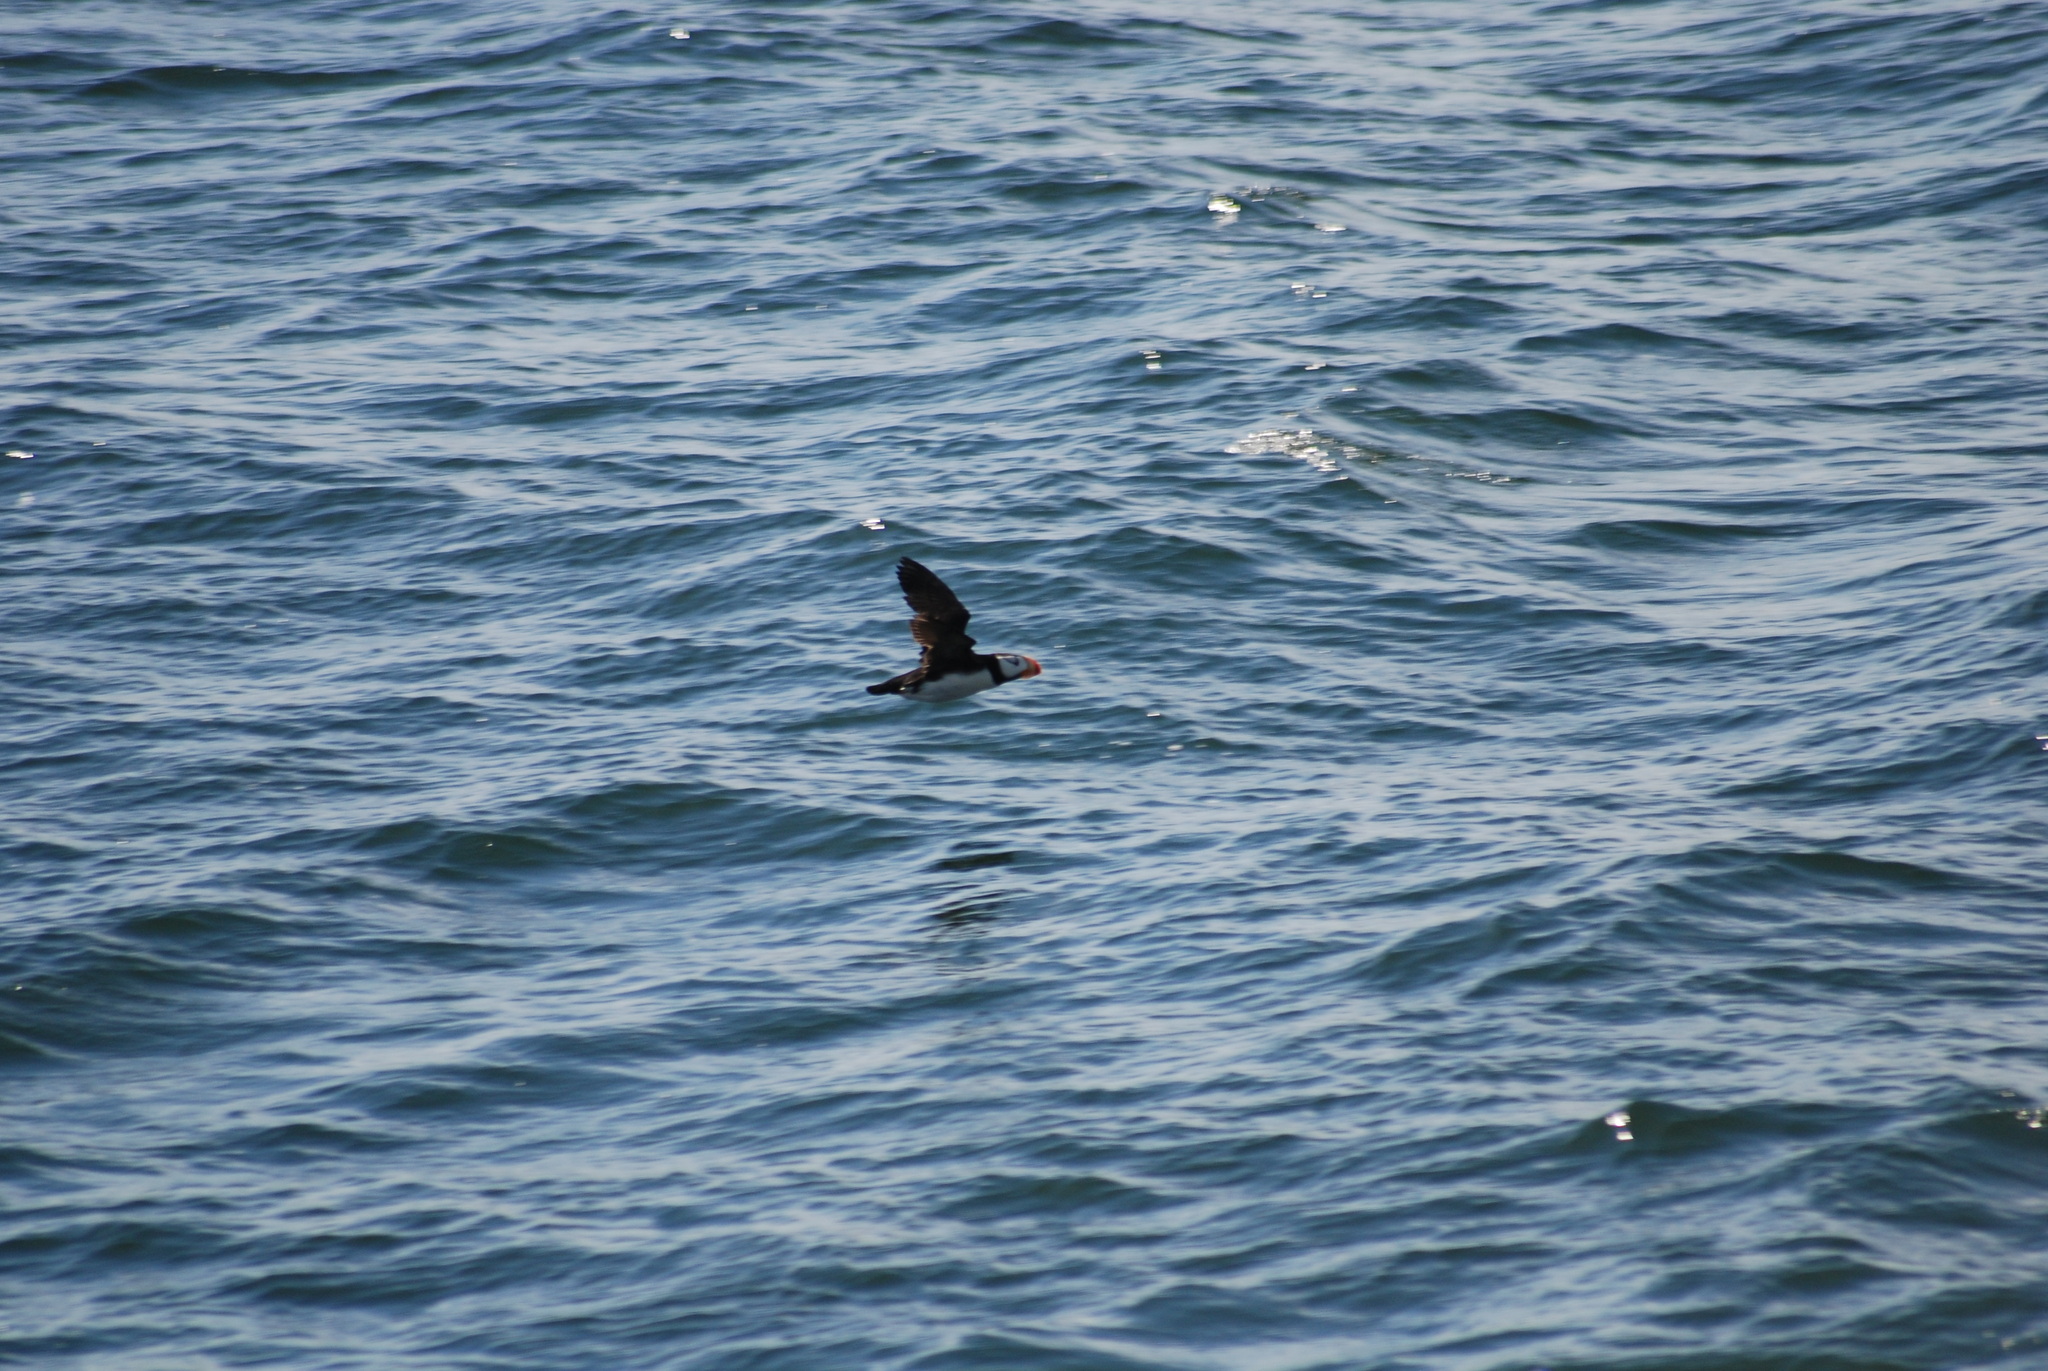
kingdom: Animalia
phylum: Chordata
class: Aves
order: Charadriiformes
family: Alcidae
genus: Fratercula
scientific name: Fratercula corniculata
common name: Horned puffin
